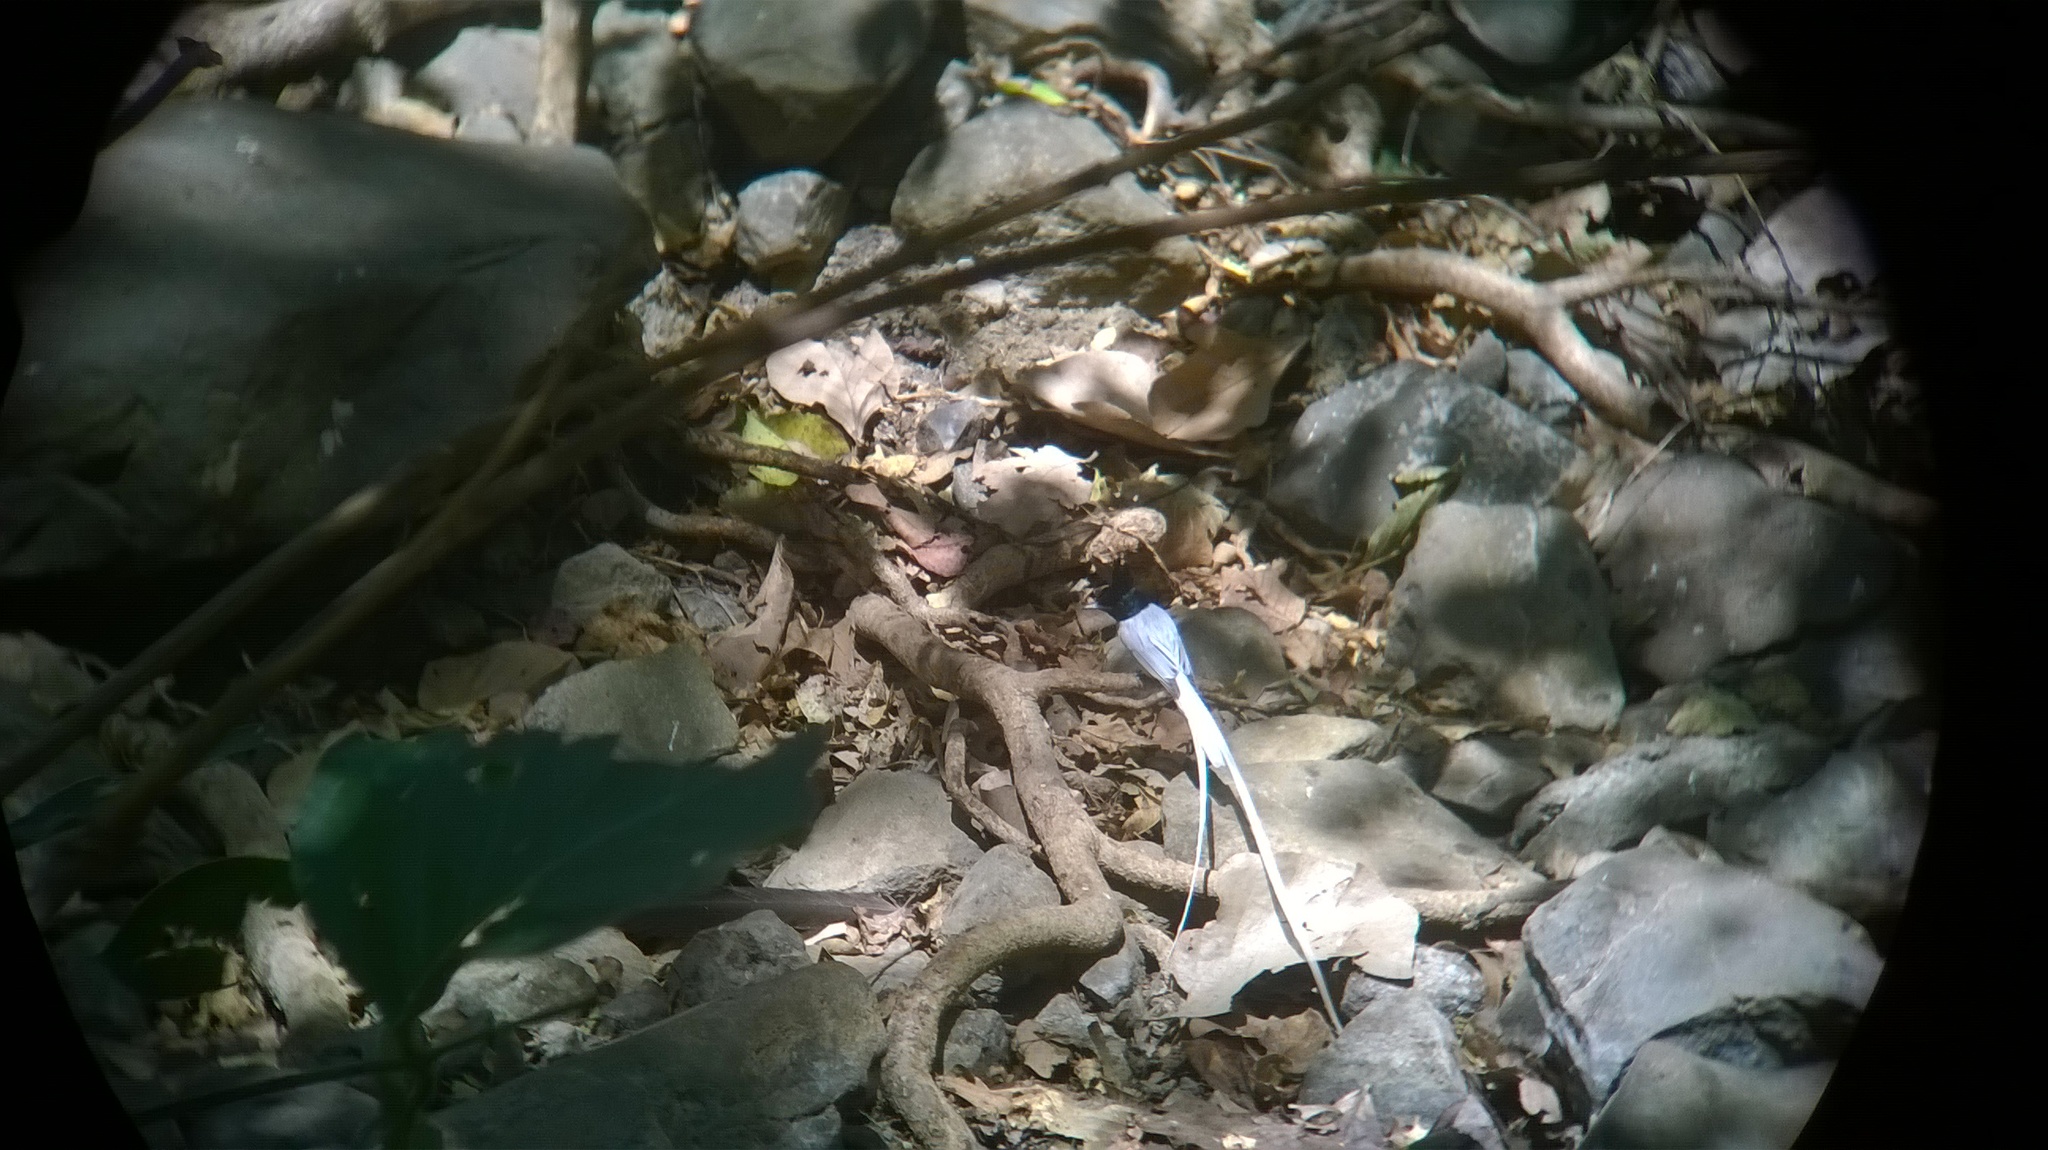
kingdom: Animalia
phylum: Chordata
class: Aves
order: Passeriformes
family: Monarchidae
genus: Terpsiphone
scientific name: Terpsiphone paradisi
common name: Indian paradise flycatcher
